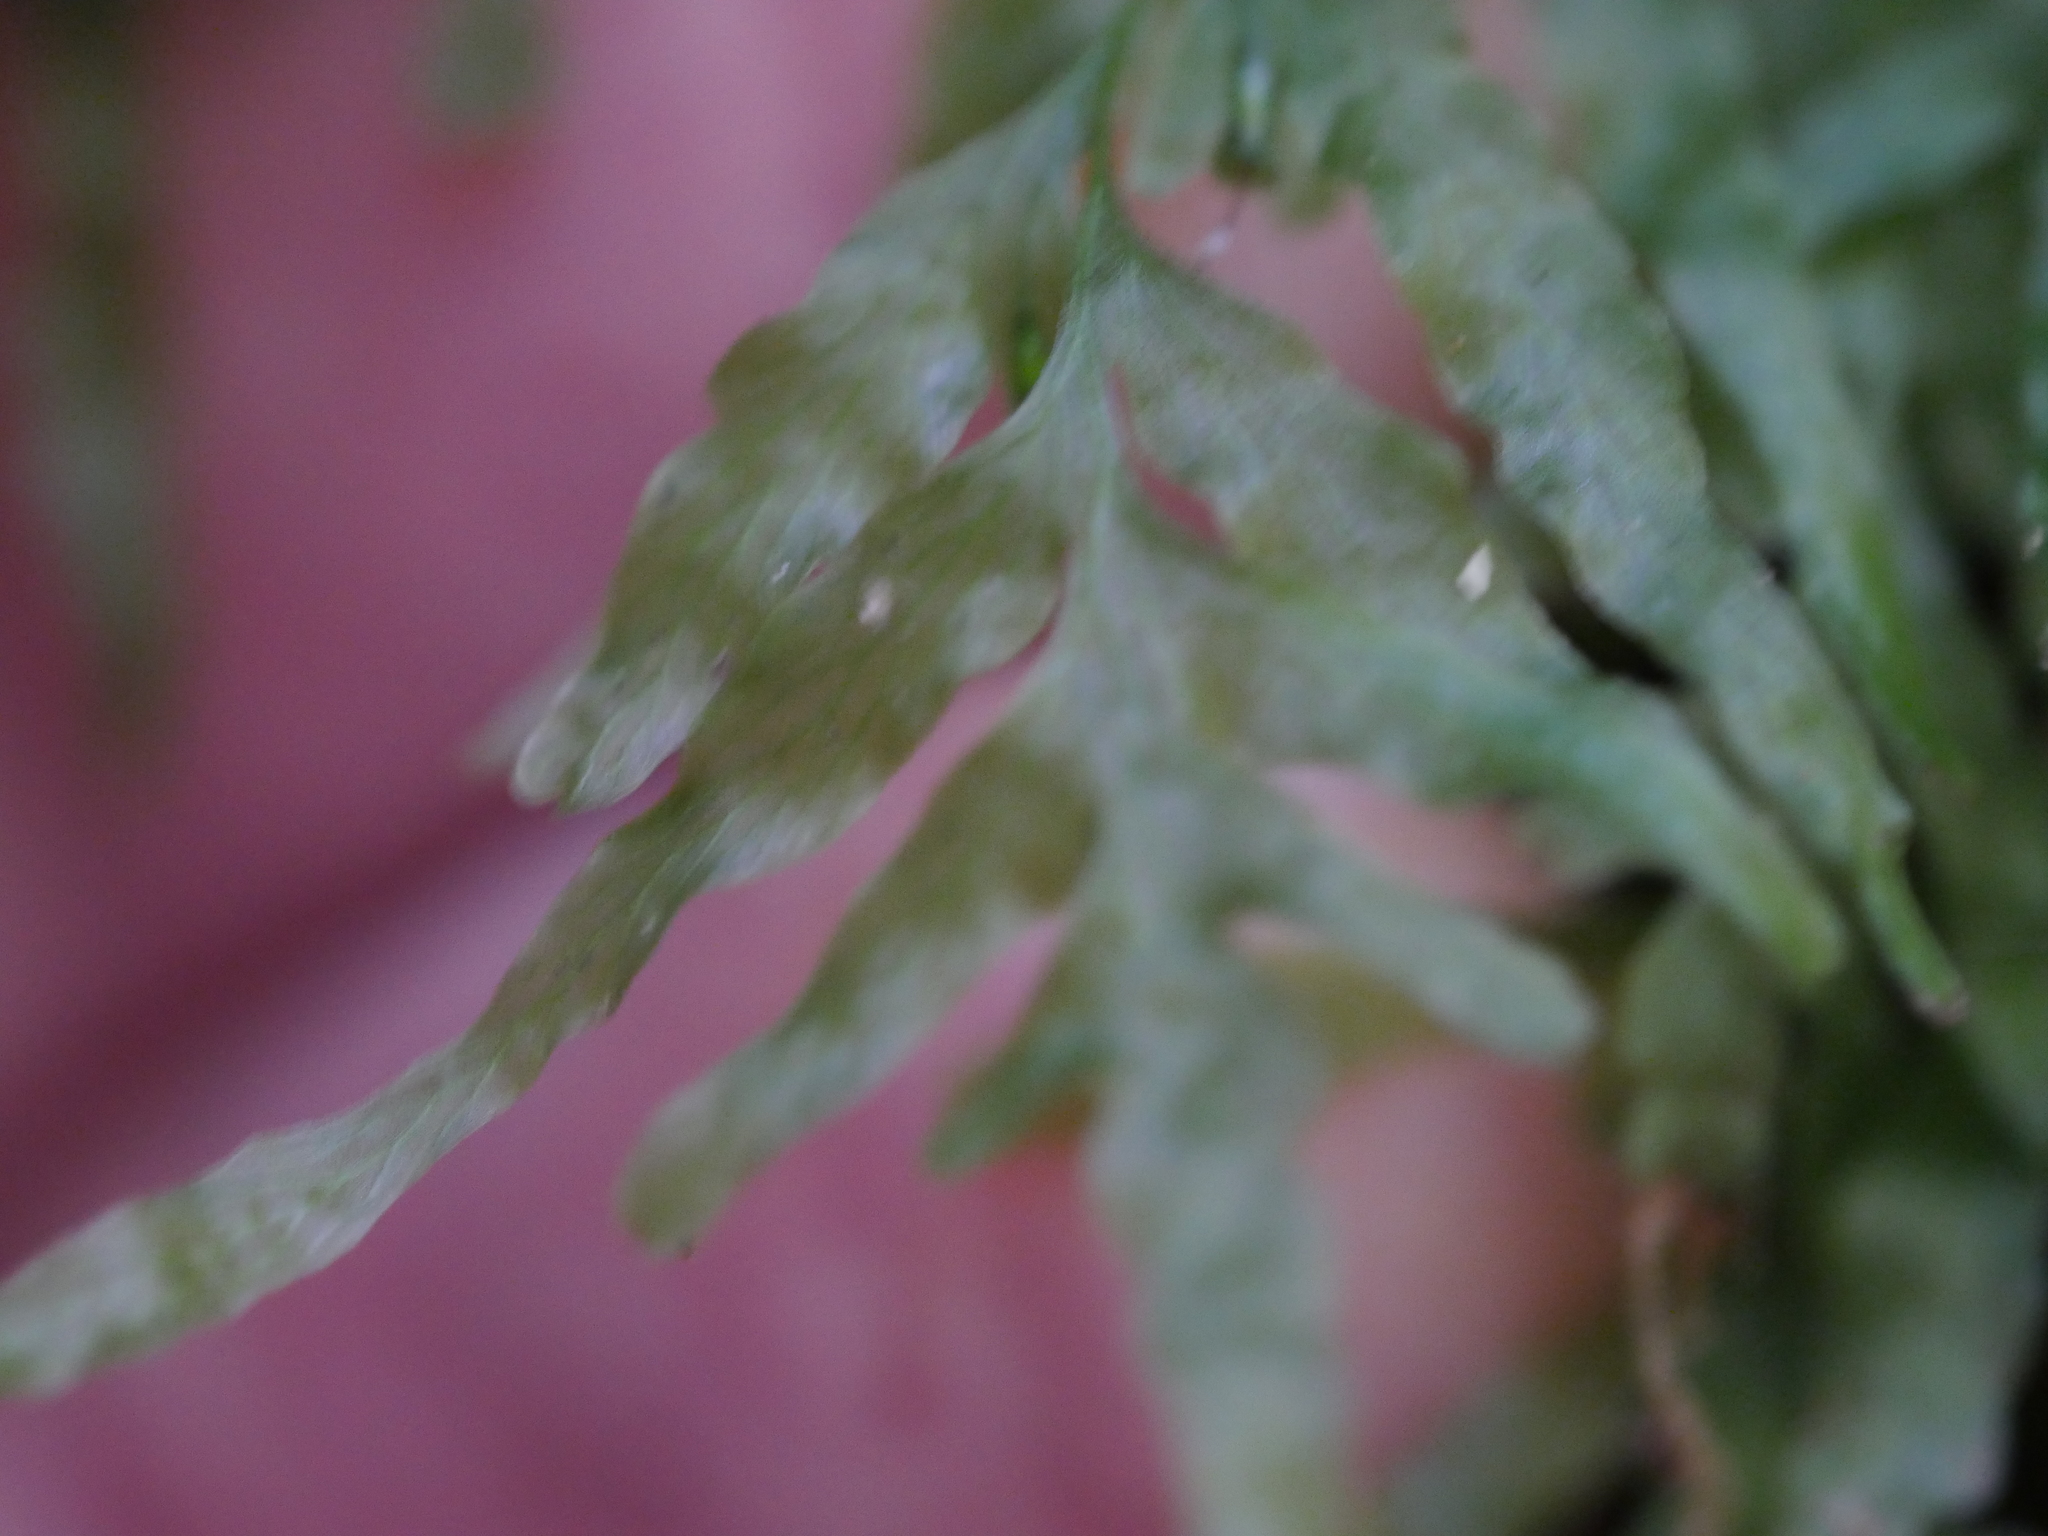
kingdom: Plantae
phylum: Tracheophyta
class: Polypodiopsida
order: Hymenophyllales
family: Hymenophyllaceae
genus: Polyphlebium
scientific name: Polyphlebium venosum
